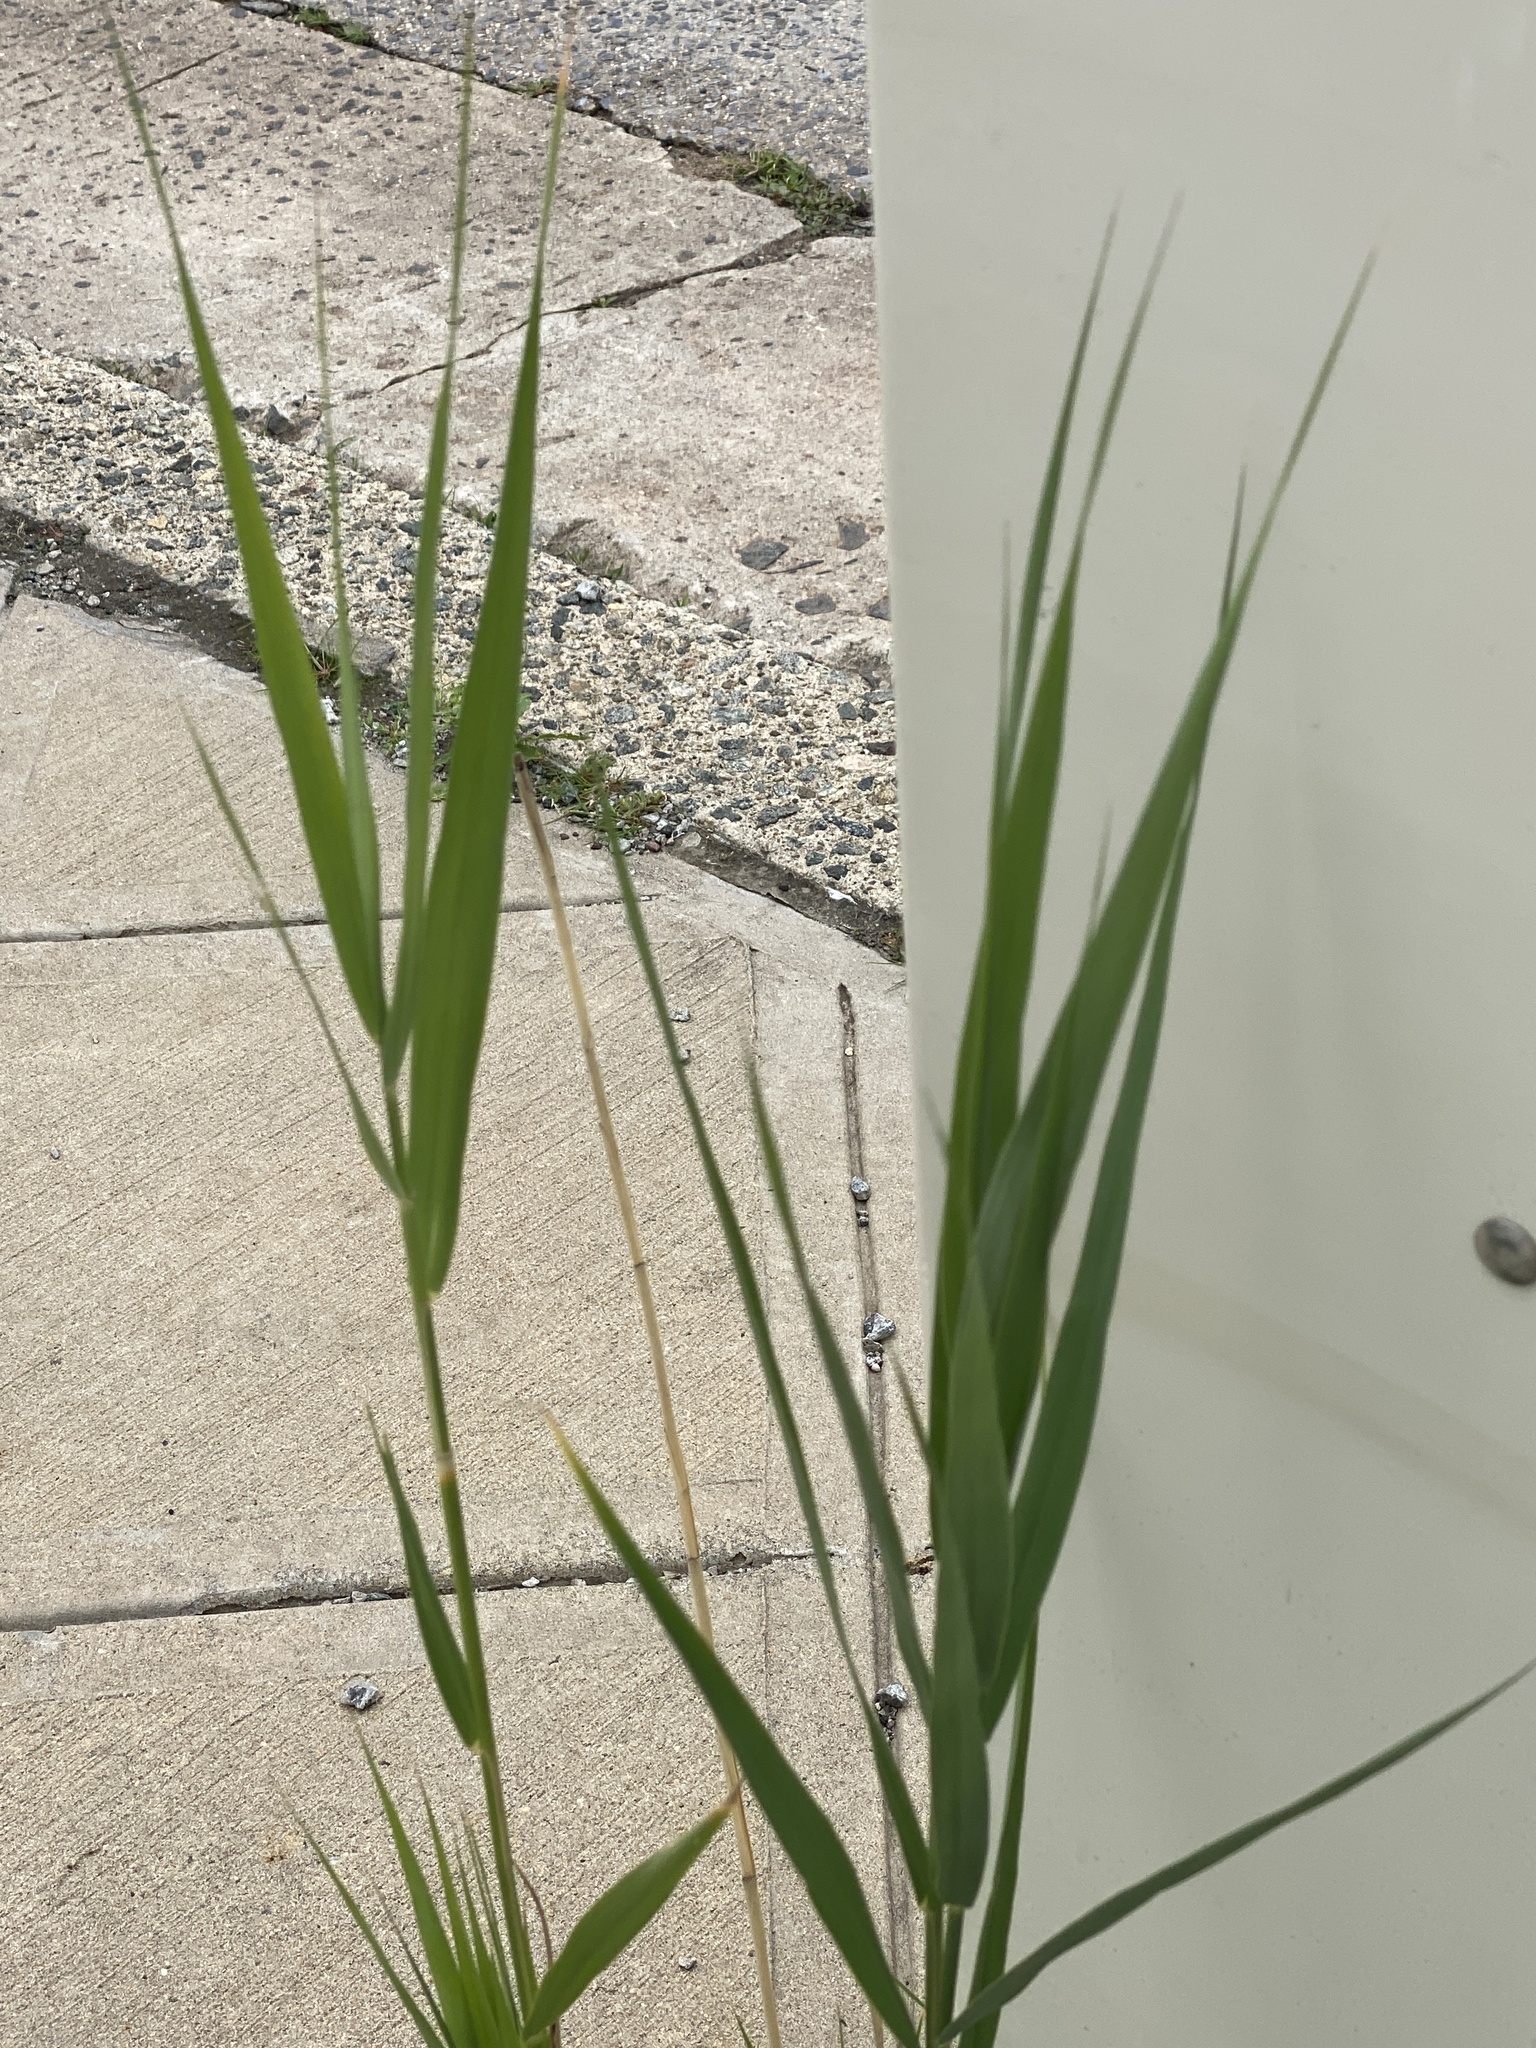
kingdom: Plantae
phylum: Tracheophyta
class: Liliopsida
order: Poales
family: Poaceae
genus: Phragmites
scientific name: Phragmites australis
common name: Common reed
